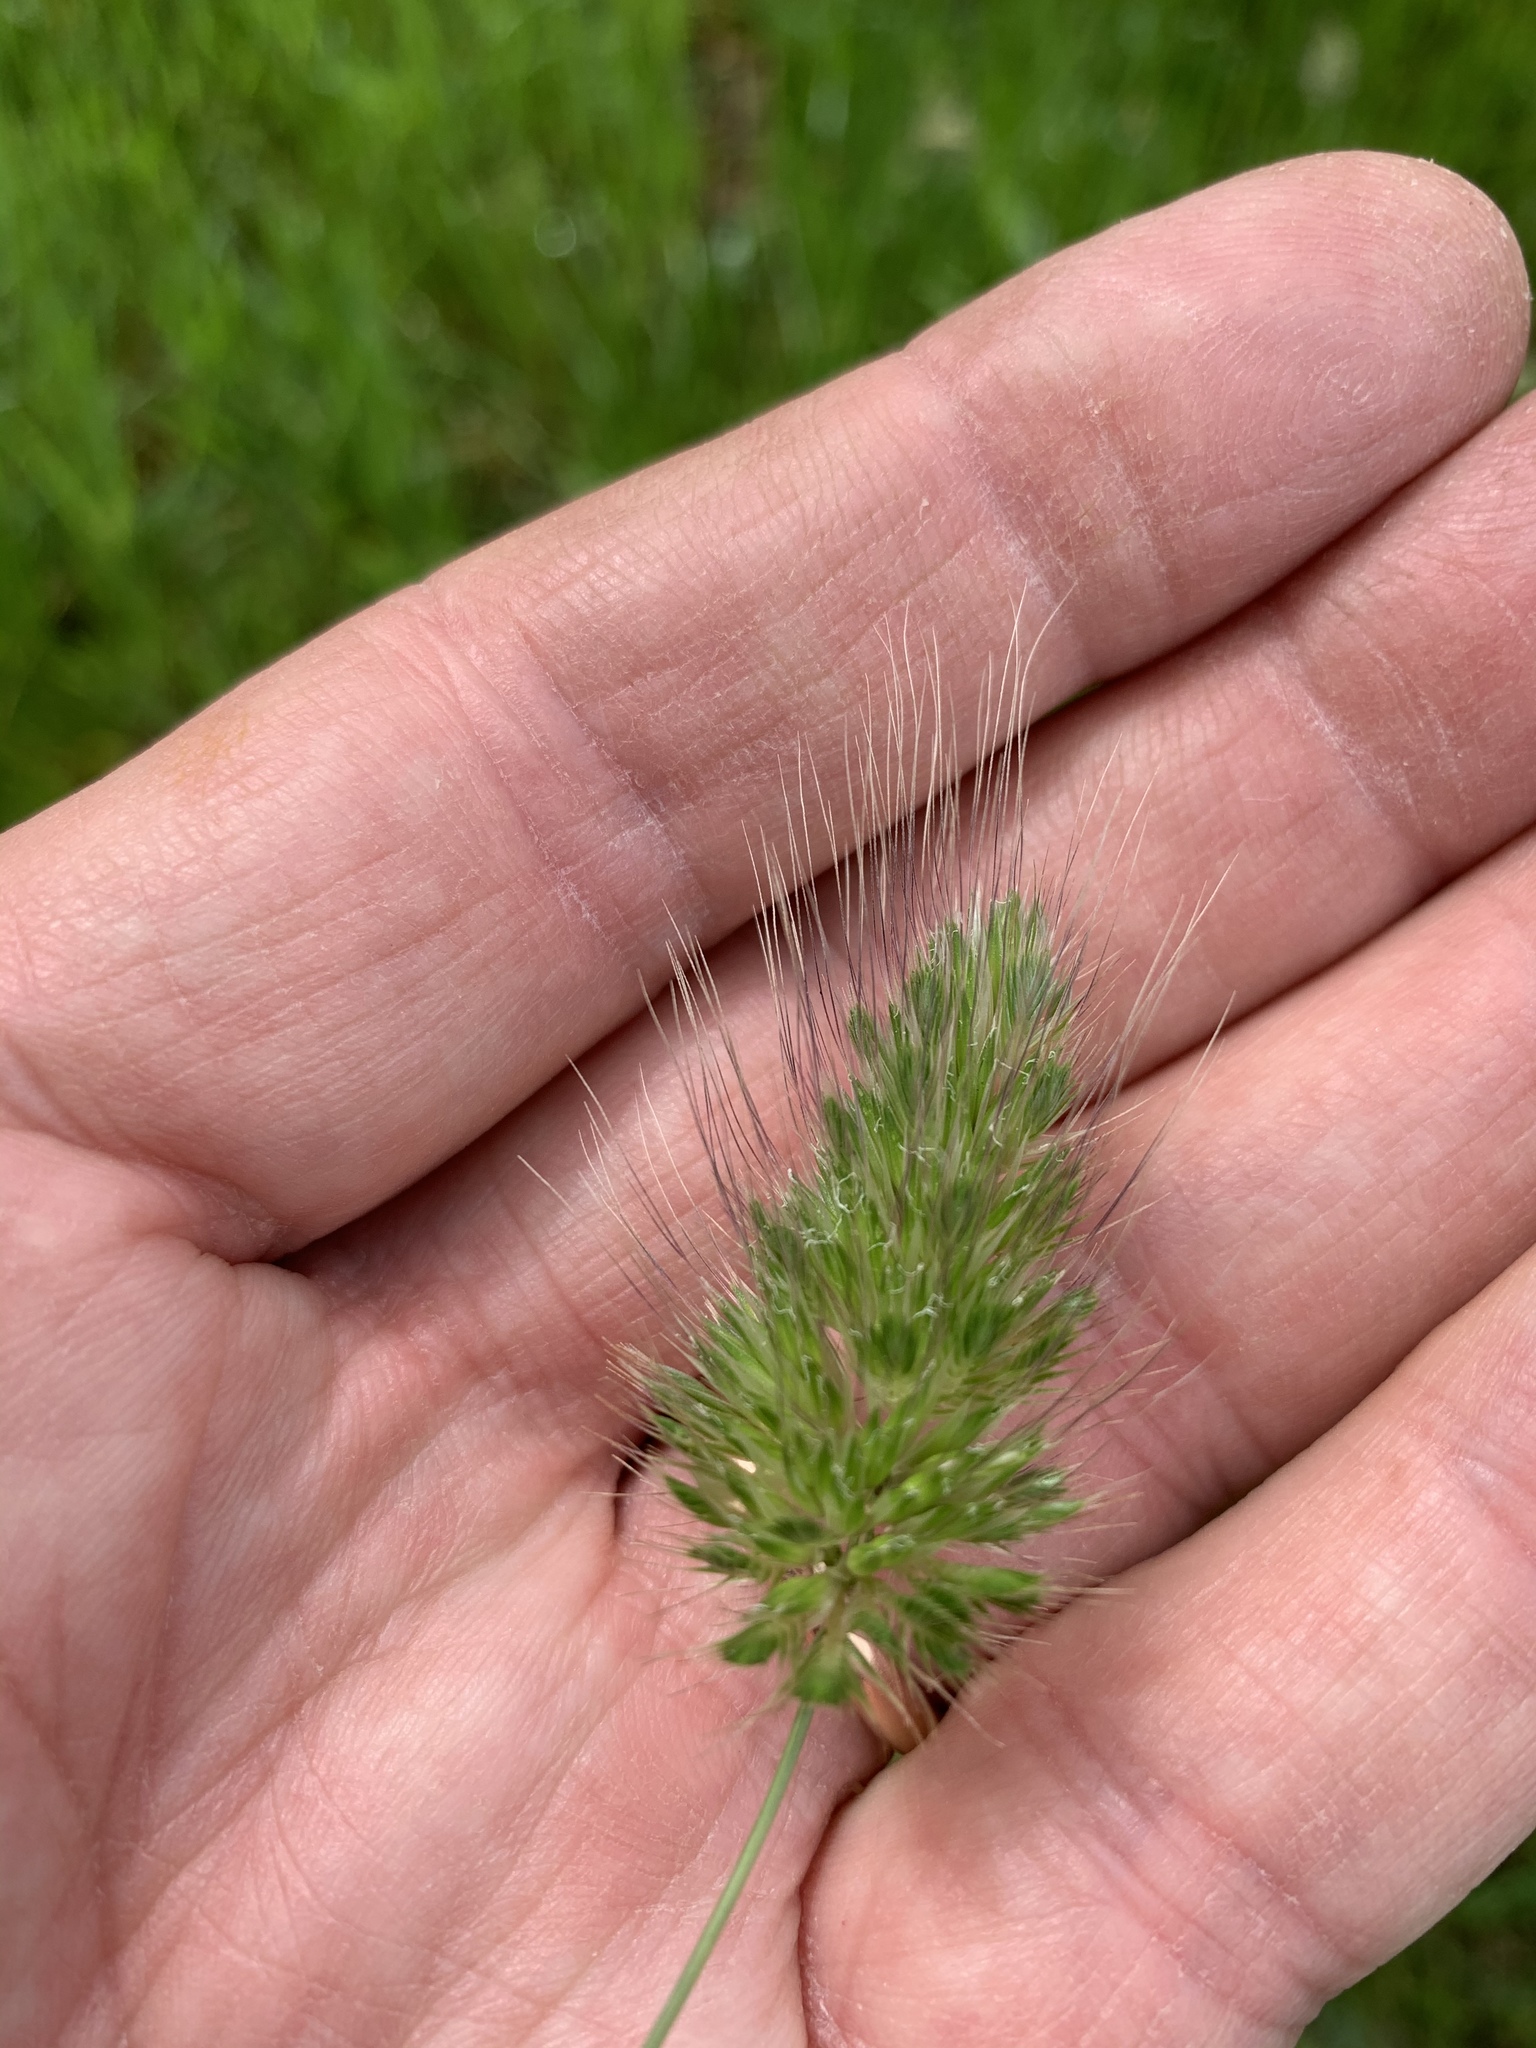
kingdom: Plantae
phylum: Tracheophyta
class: Liliopsida
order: Poales
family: Poaceae
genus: Cynosurus
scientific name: Cynosurus echinatus
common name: Rough dog's-tail
